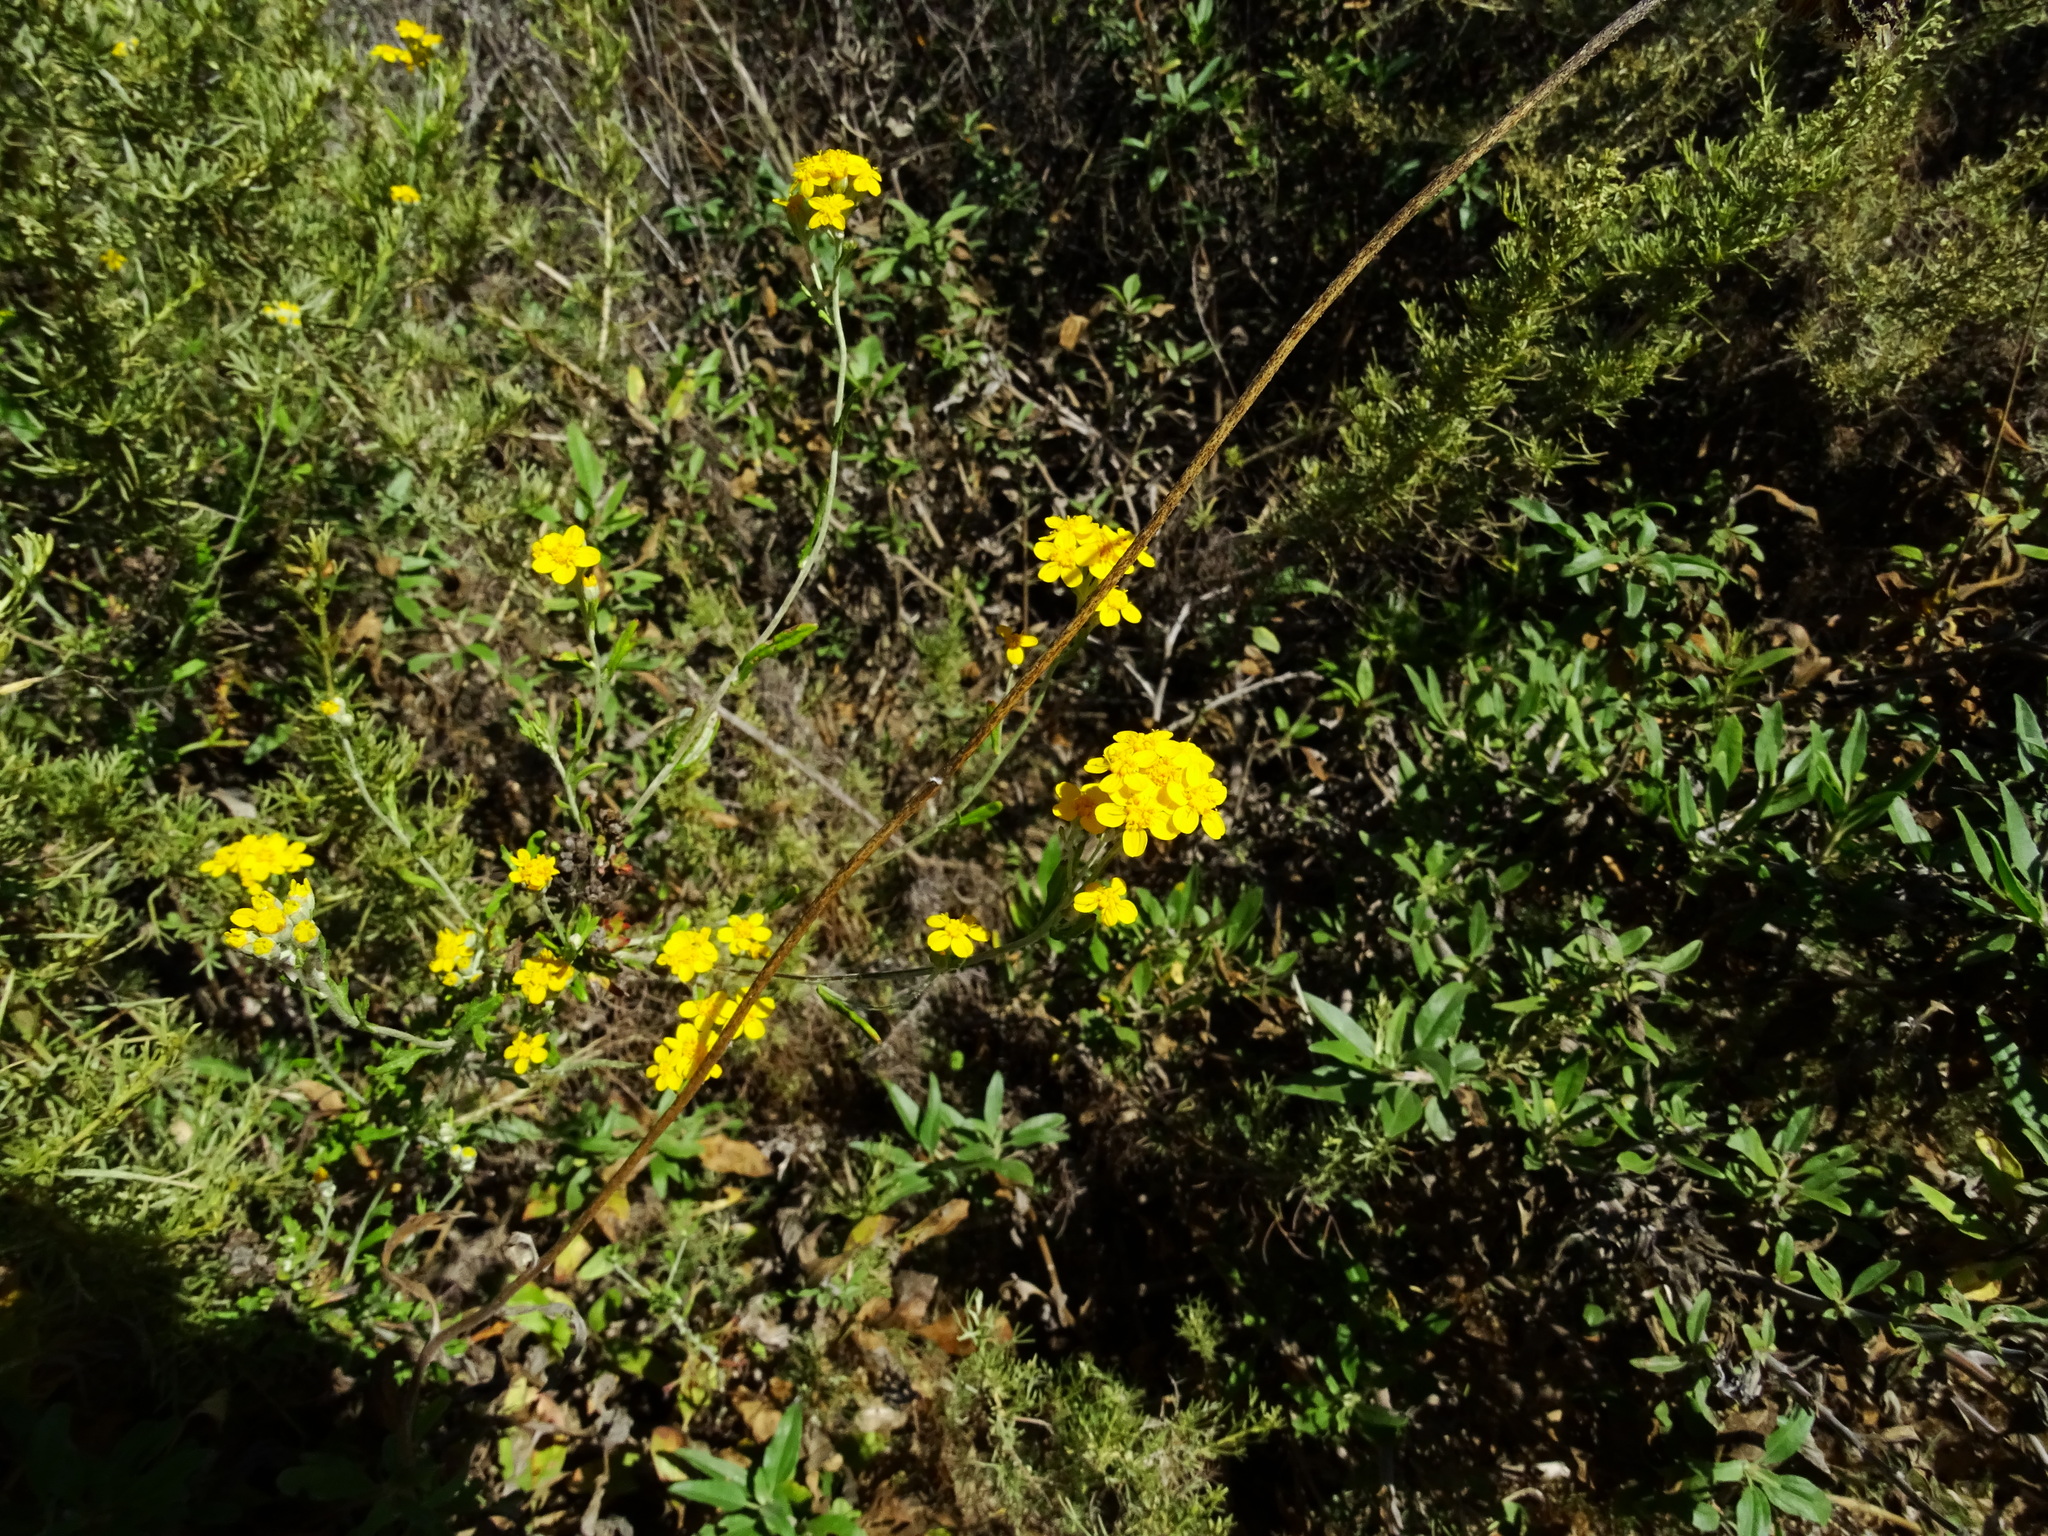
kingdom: Plantae
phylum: Tracheophyta
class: Magnoliopsida
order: Asterales
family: Asteraceae
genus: Eriophyllum
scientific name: Eriophyllum confertiflorum
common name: Golden-yarrow
